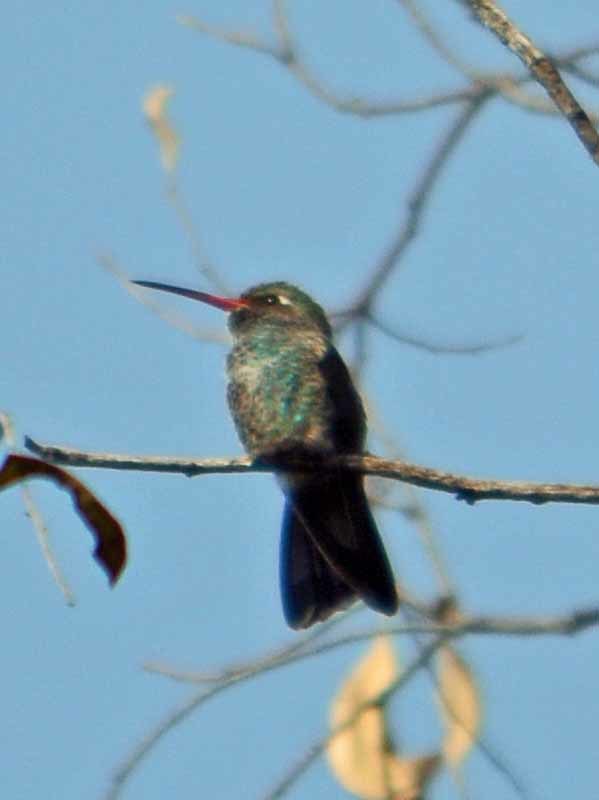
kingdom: Animalia
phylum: Chordata
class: Aves
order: Apodiformes
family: Trochilidae
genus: Cynanthus
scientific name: Cynanthus latirostris
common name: Broad-billed hummingbird
